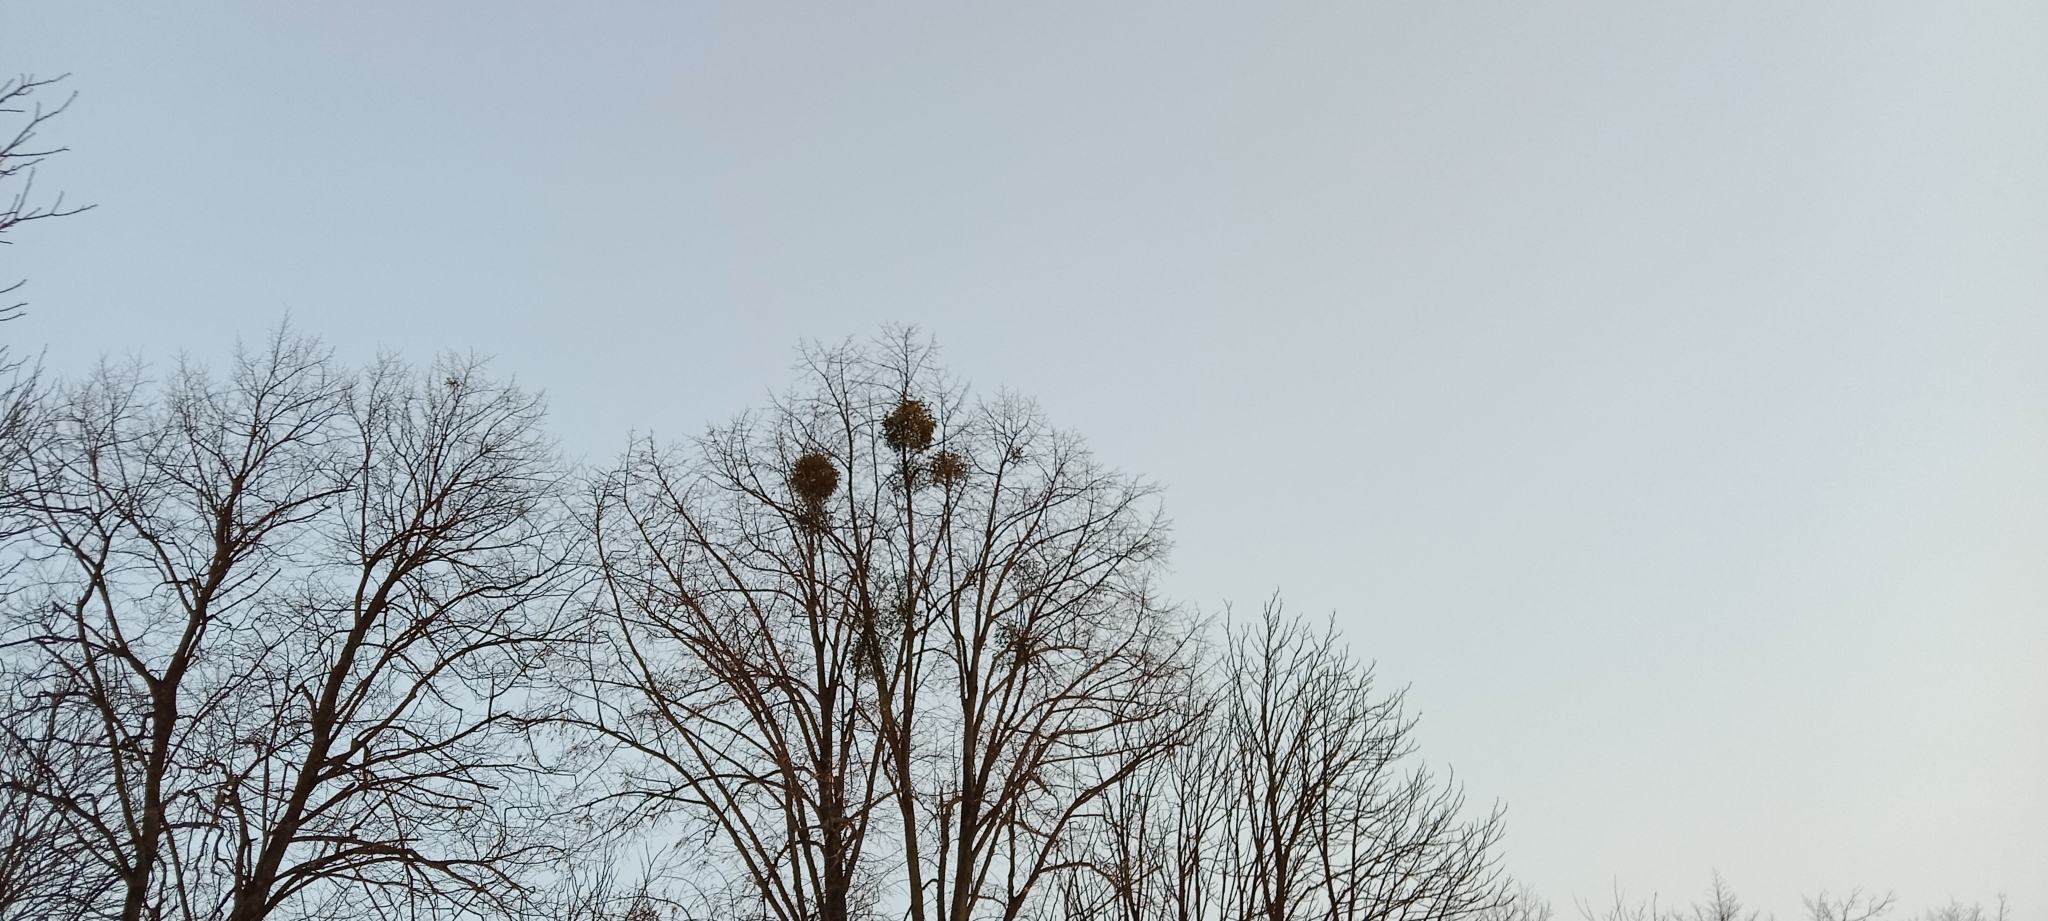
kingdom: Plantae
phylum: Tracheophyta
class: Magnoliopsida
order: Santalales
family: Viscaceae
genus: Viscum
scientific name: Viscum album
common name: Mistletoe
